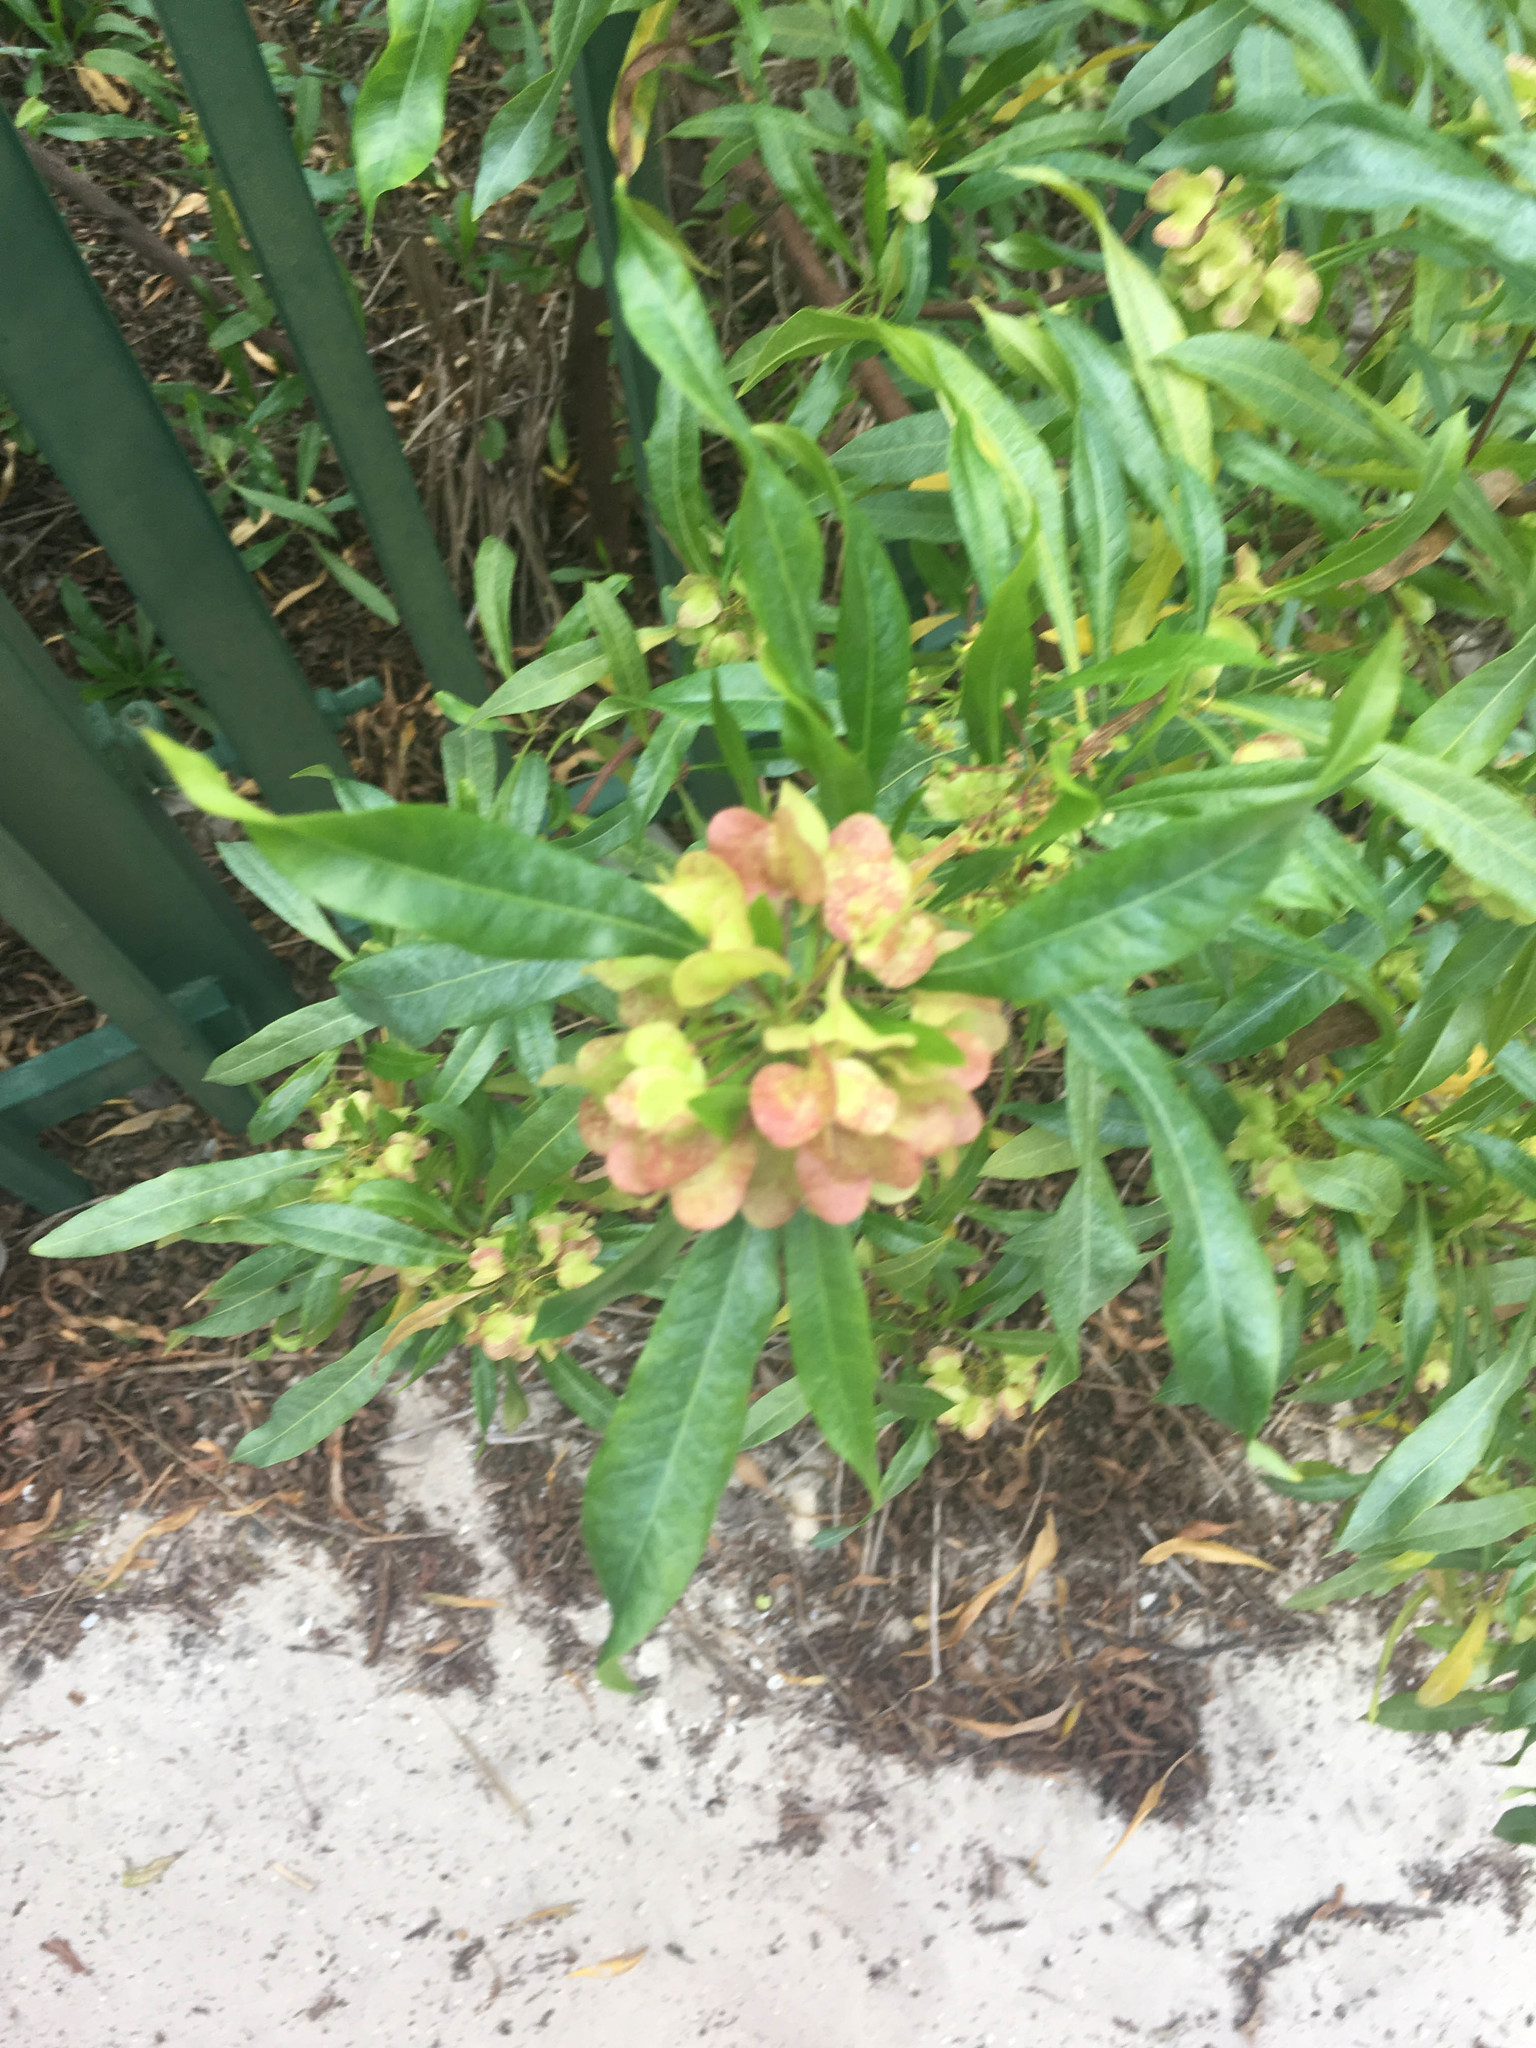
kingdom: Plantae
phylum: Tracheophyta
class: Magnoliopsida
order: Sapindales
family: Sapindaceae
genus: Dodonaea
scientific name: Dodonaea viscosa
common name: Hopbush
